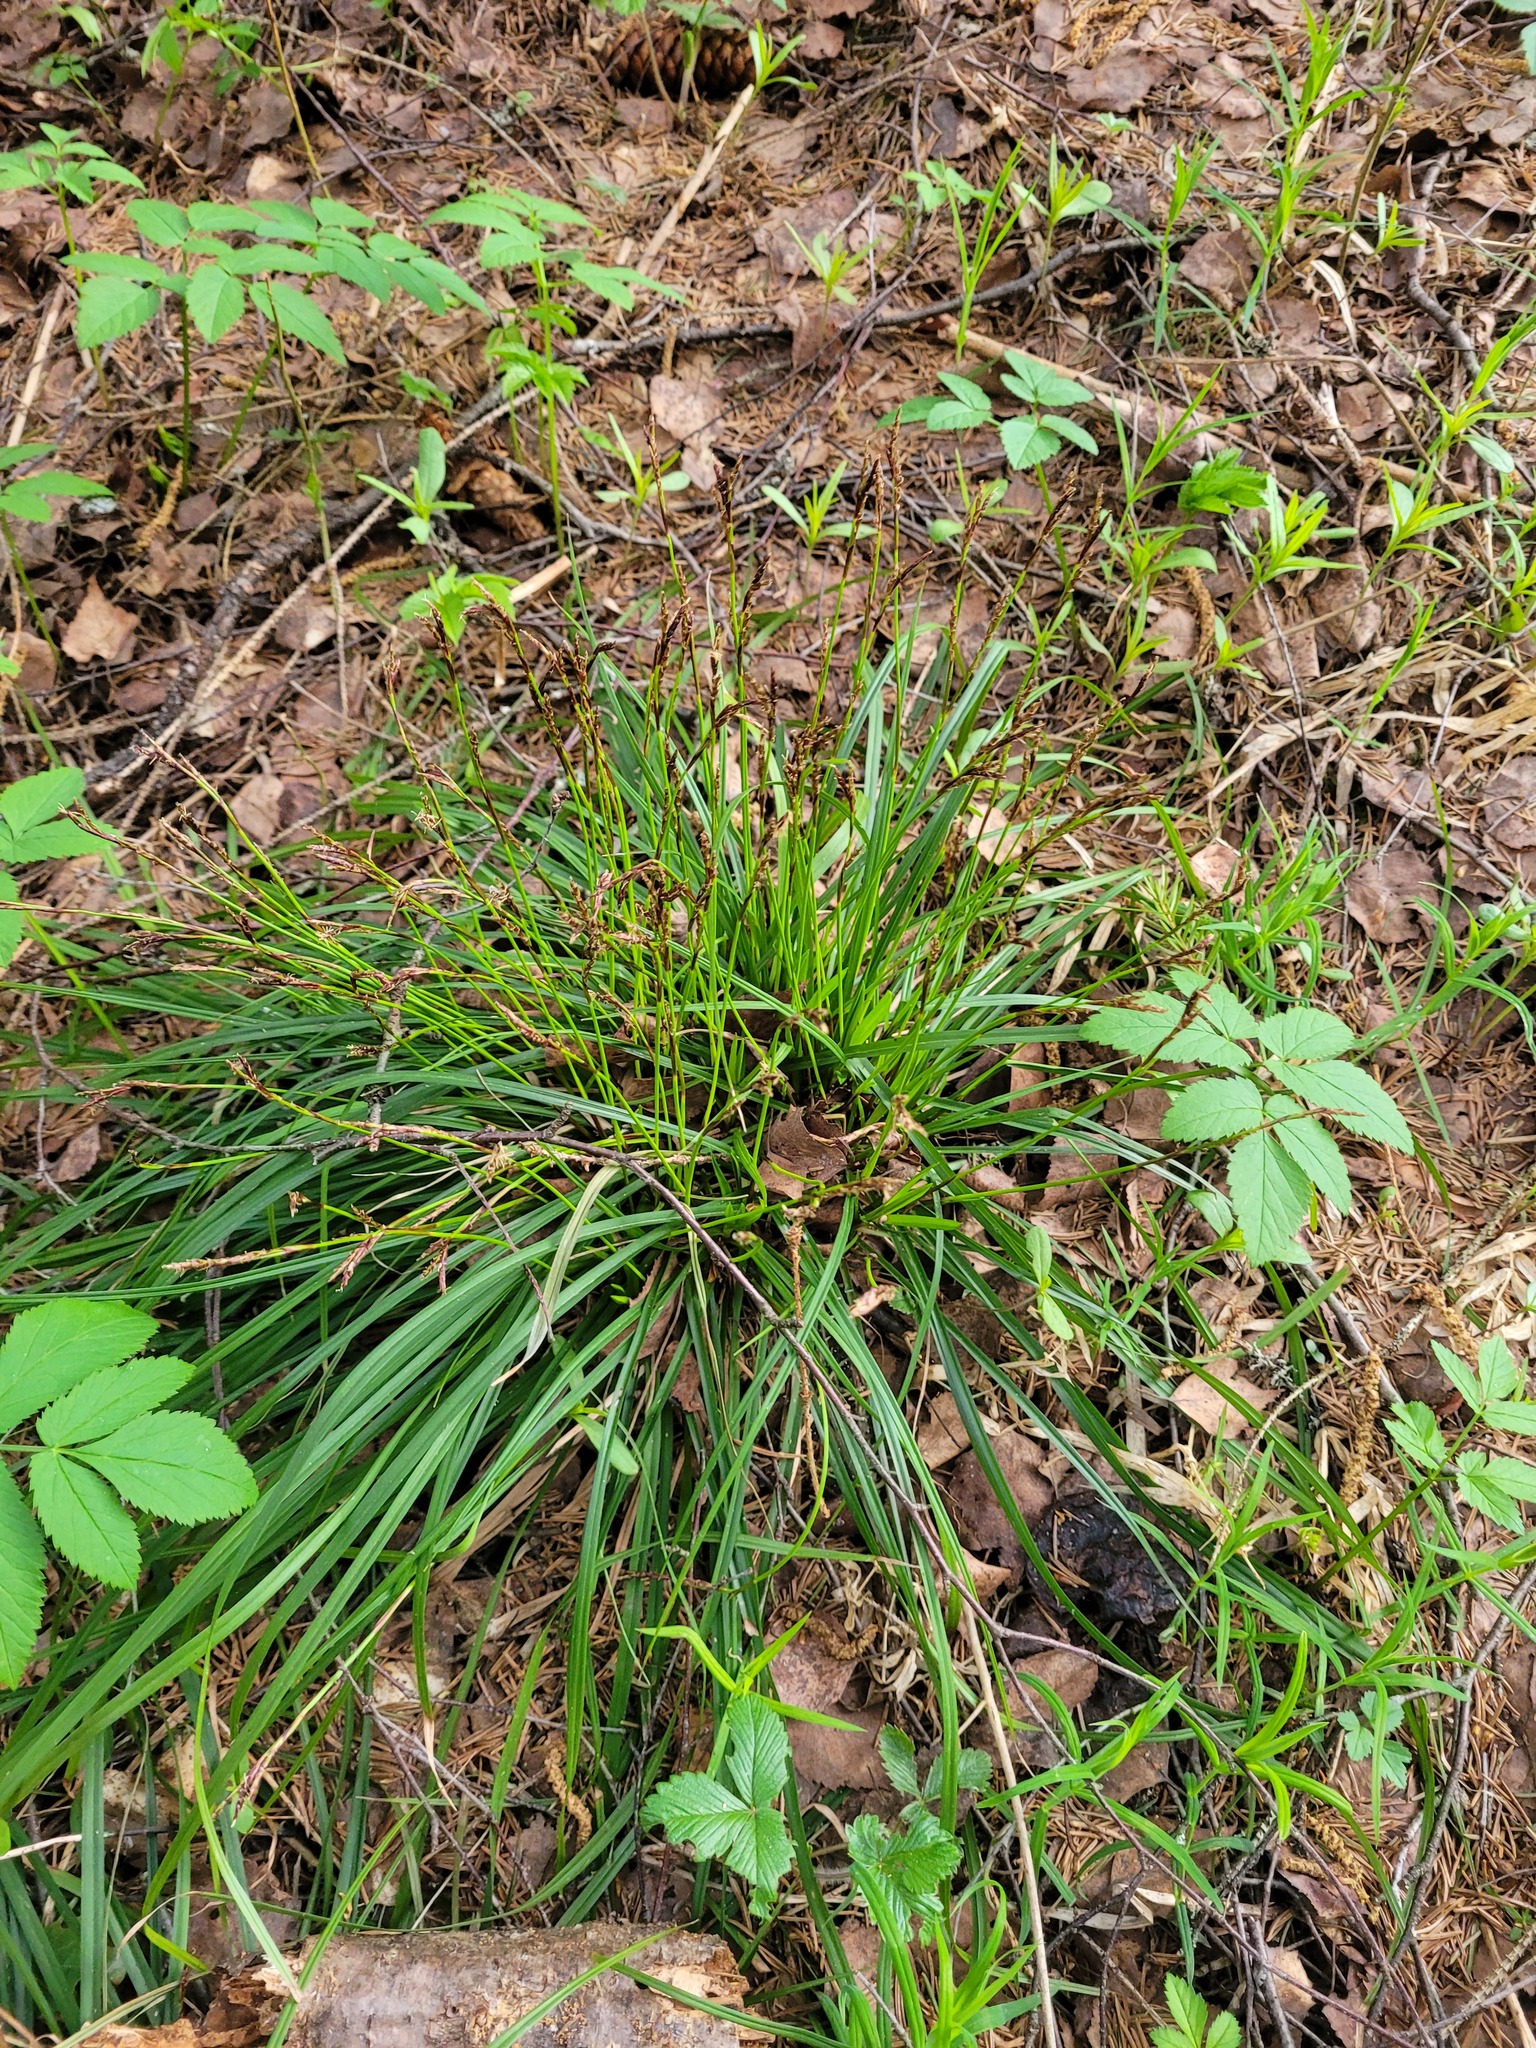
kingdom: Plantae
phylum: Tracheophyta
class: Liliopsida
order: Poales
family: Cyperaceae
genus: Carex
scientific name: Carex digitata
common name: Fingered sedge
